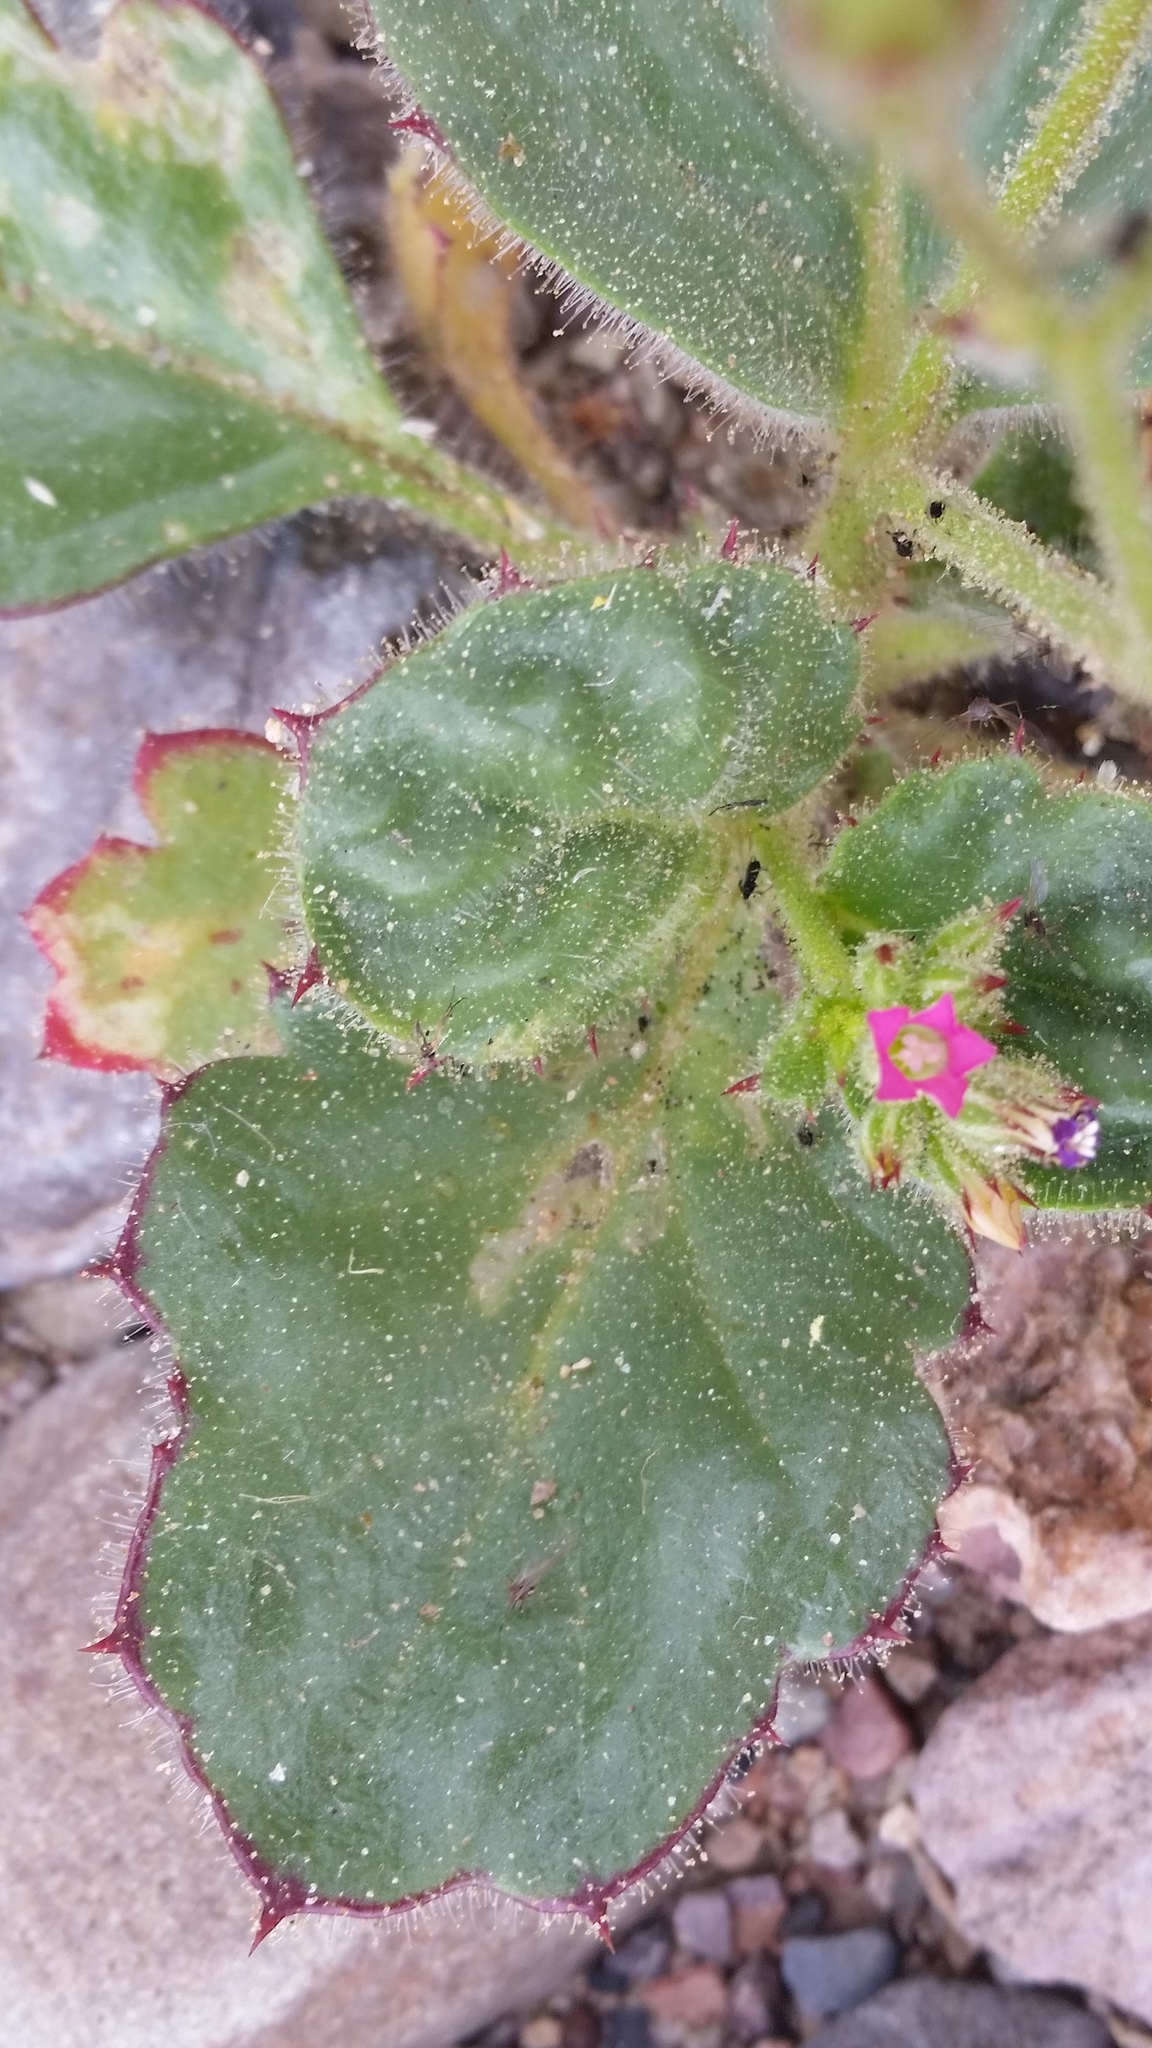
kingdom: Plantae
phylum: Tracheophyta
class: Magnoliopsida
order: Ericales
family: Polemoniaceae
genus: Aliciella
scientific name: Aliciella latifolia
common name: Broad-leaf gilia
